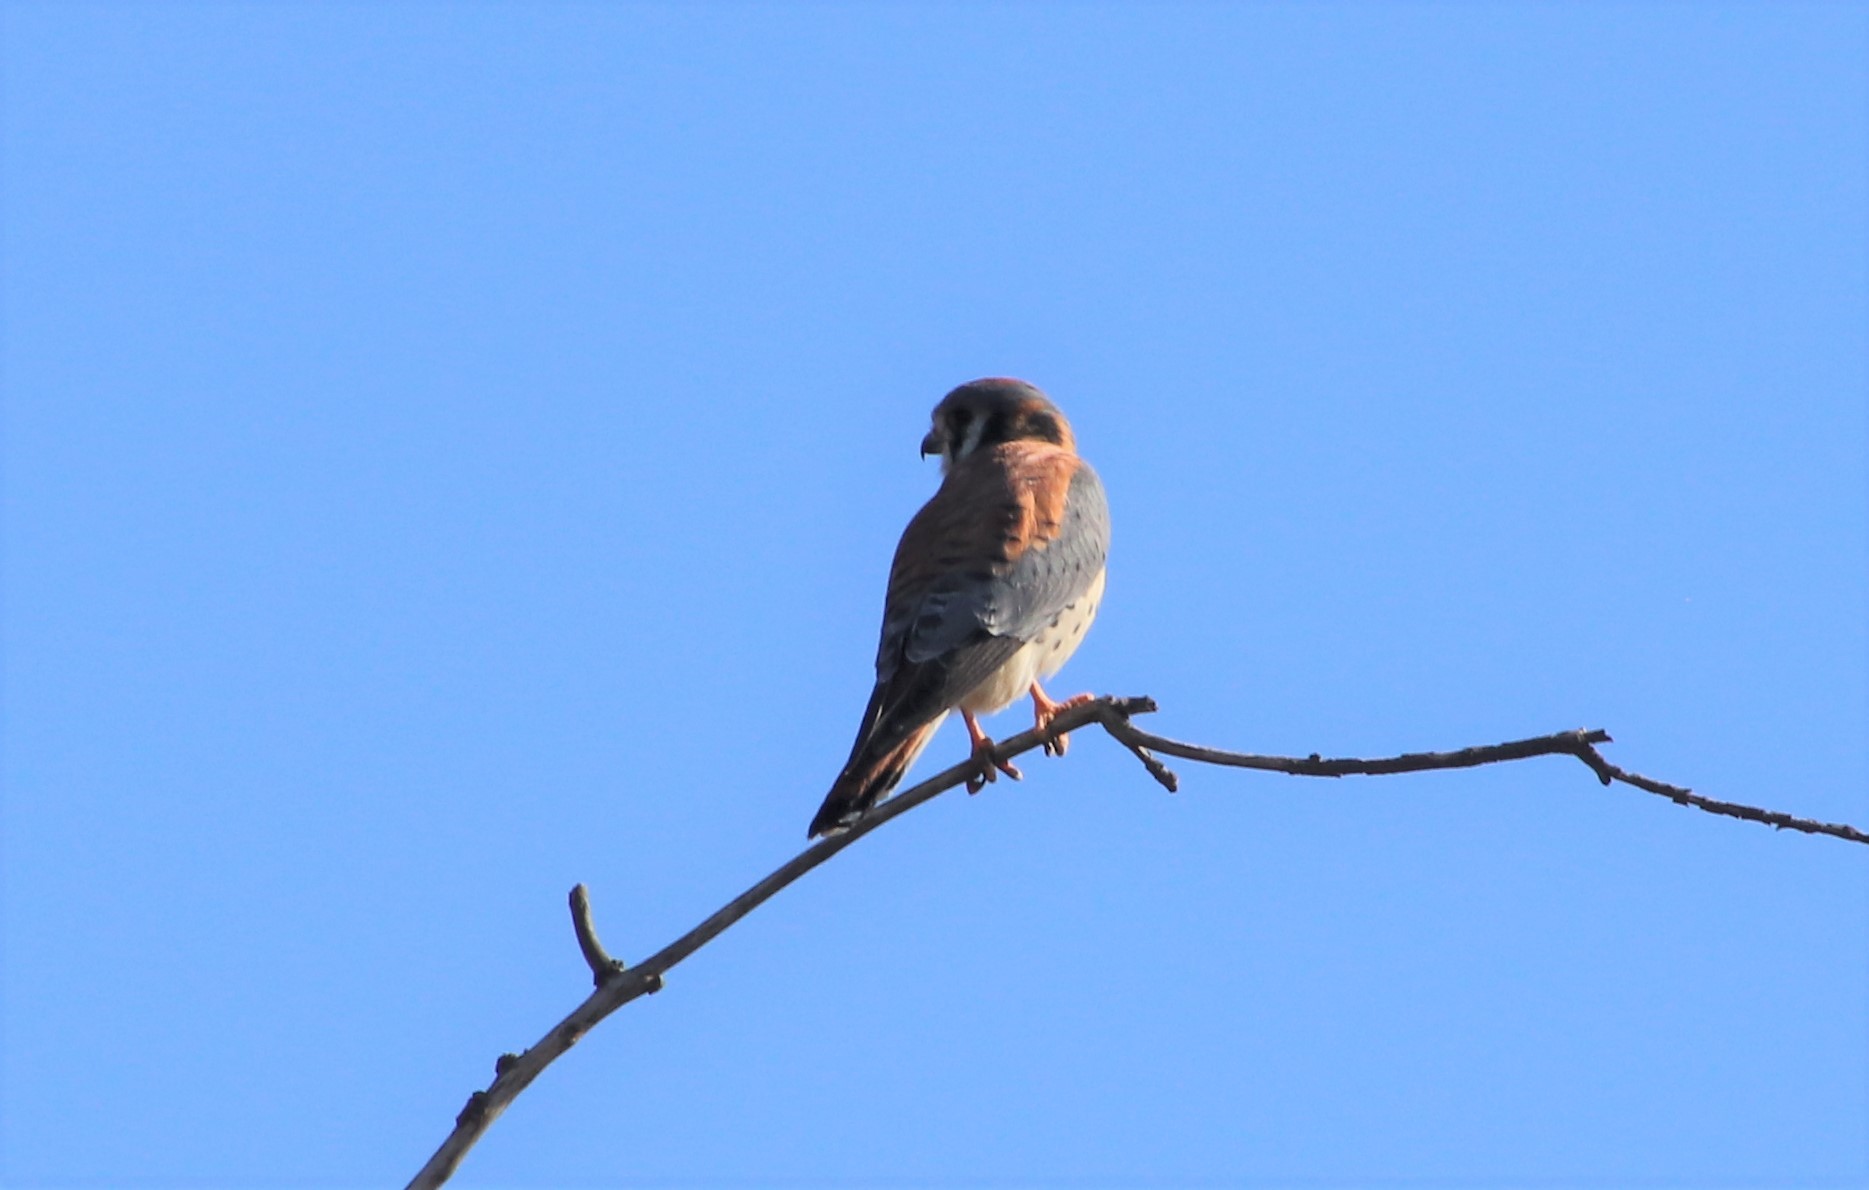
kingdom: Animalia
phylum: Chordata
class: Aves
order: Falconiformes
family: Falconidae
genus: Falco
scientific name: Falco sparverius
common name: American kestrel
